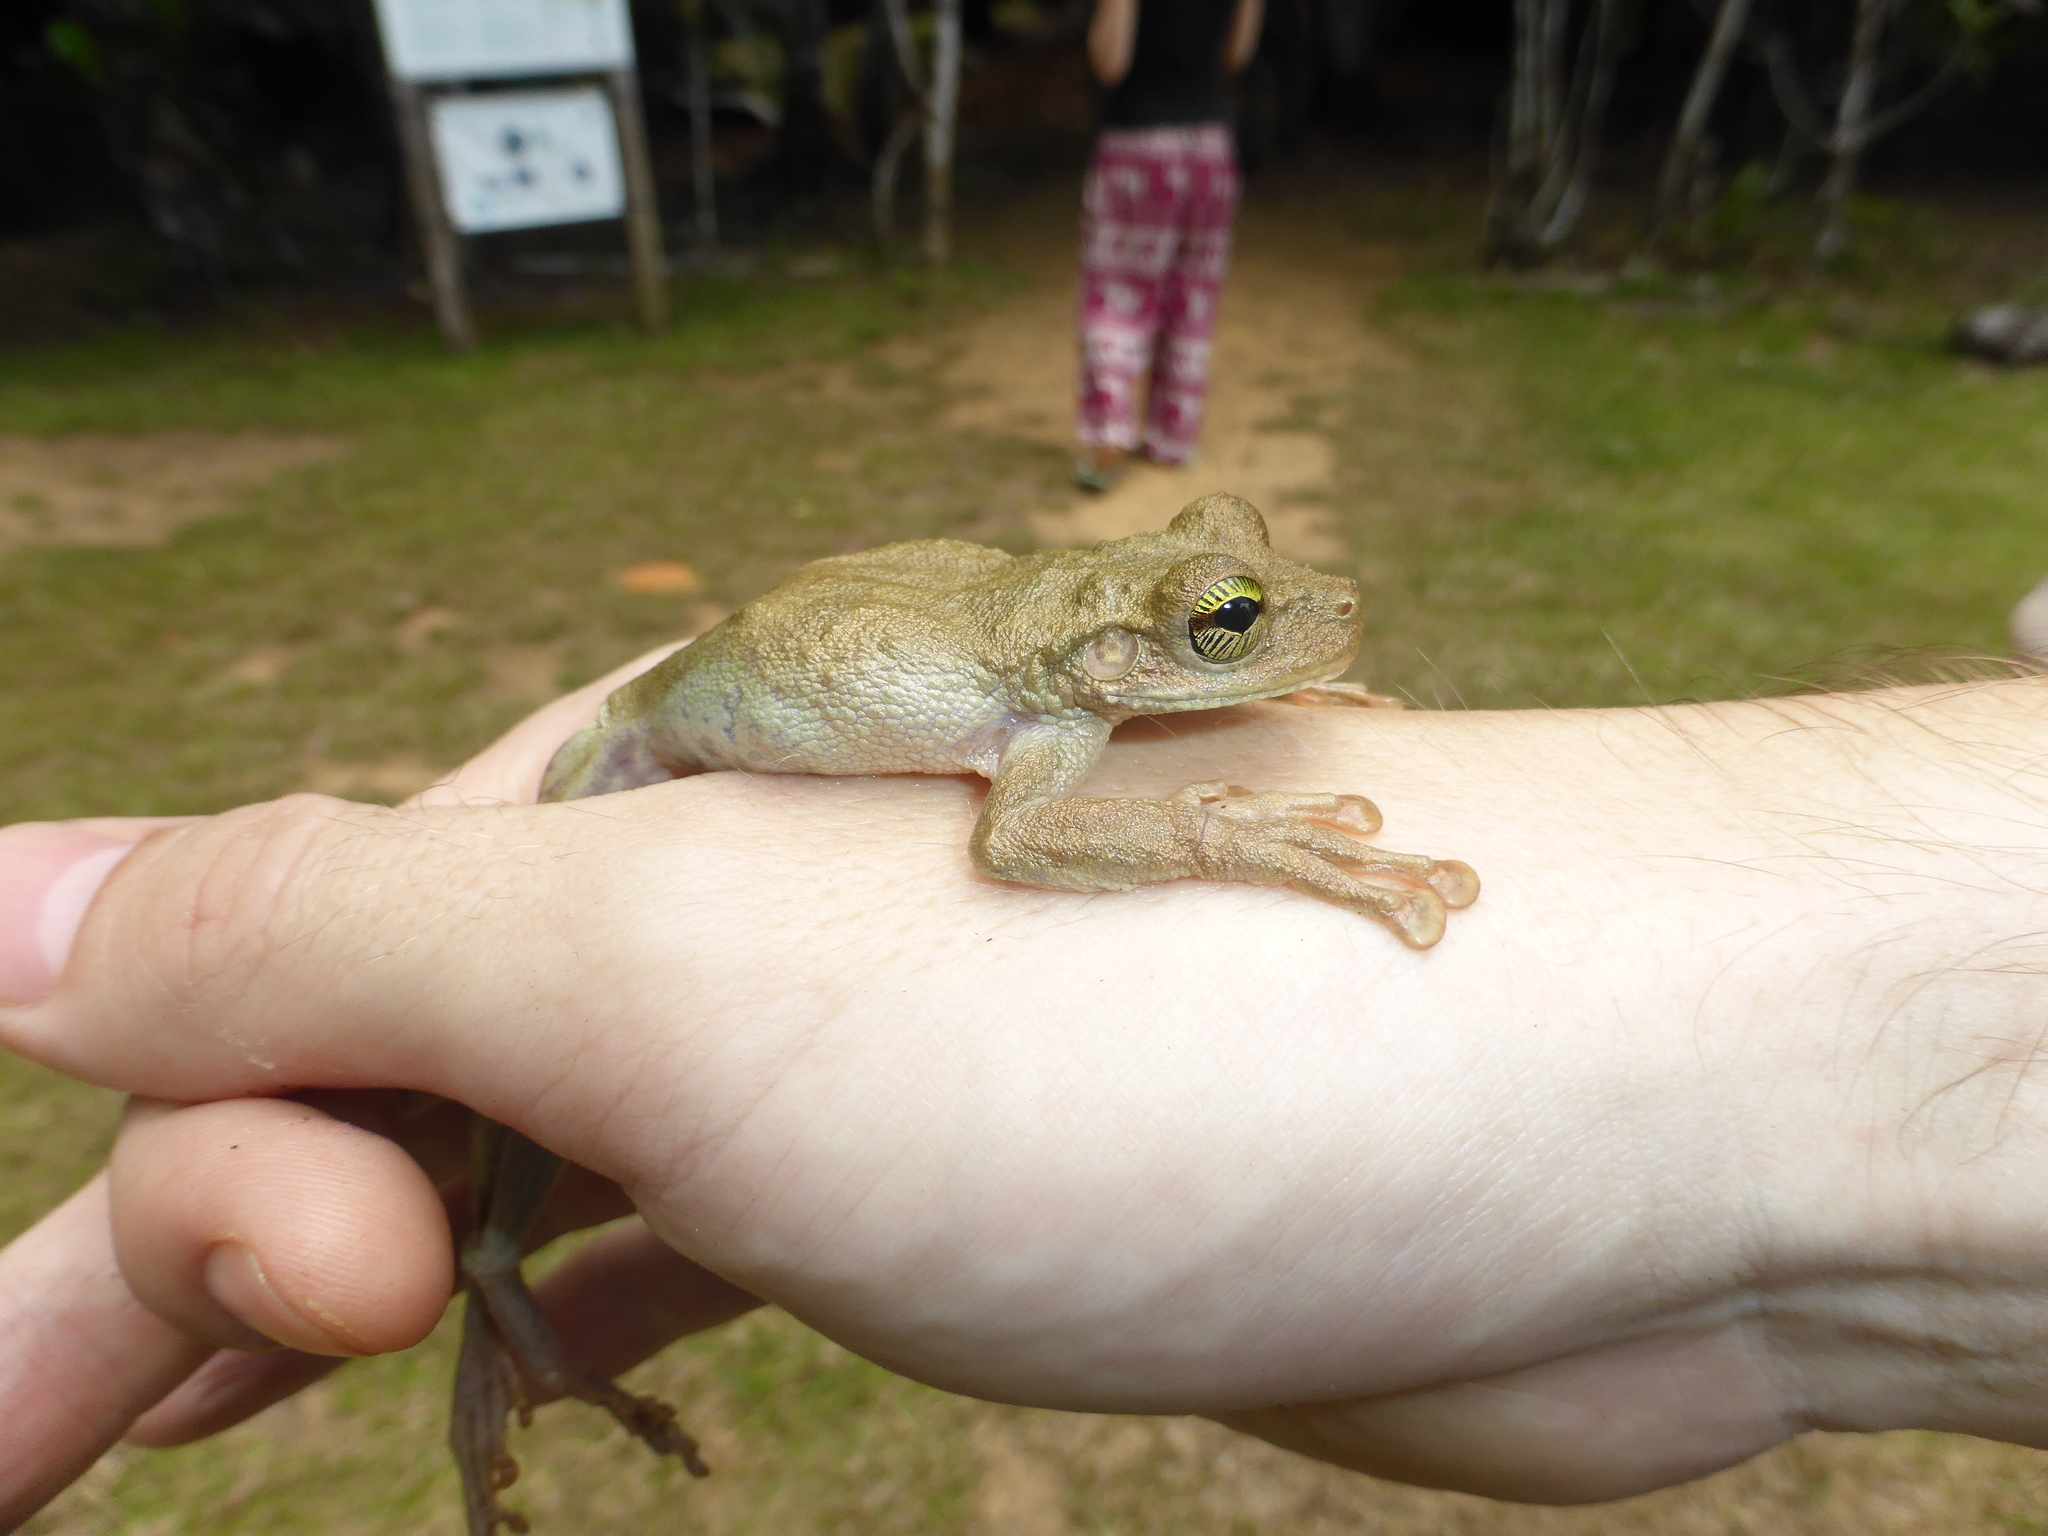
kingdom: Animalia
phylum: Chordata
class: Amphibia
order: Anura
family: Hylidae
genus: Osteocephalus
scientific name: Osteocephalus oophagus
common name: Oophagous slender-legged treefrog
